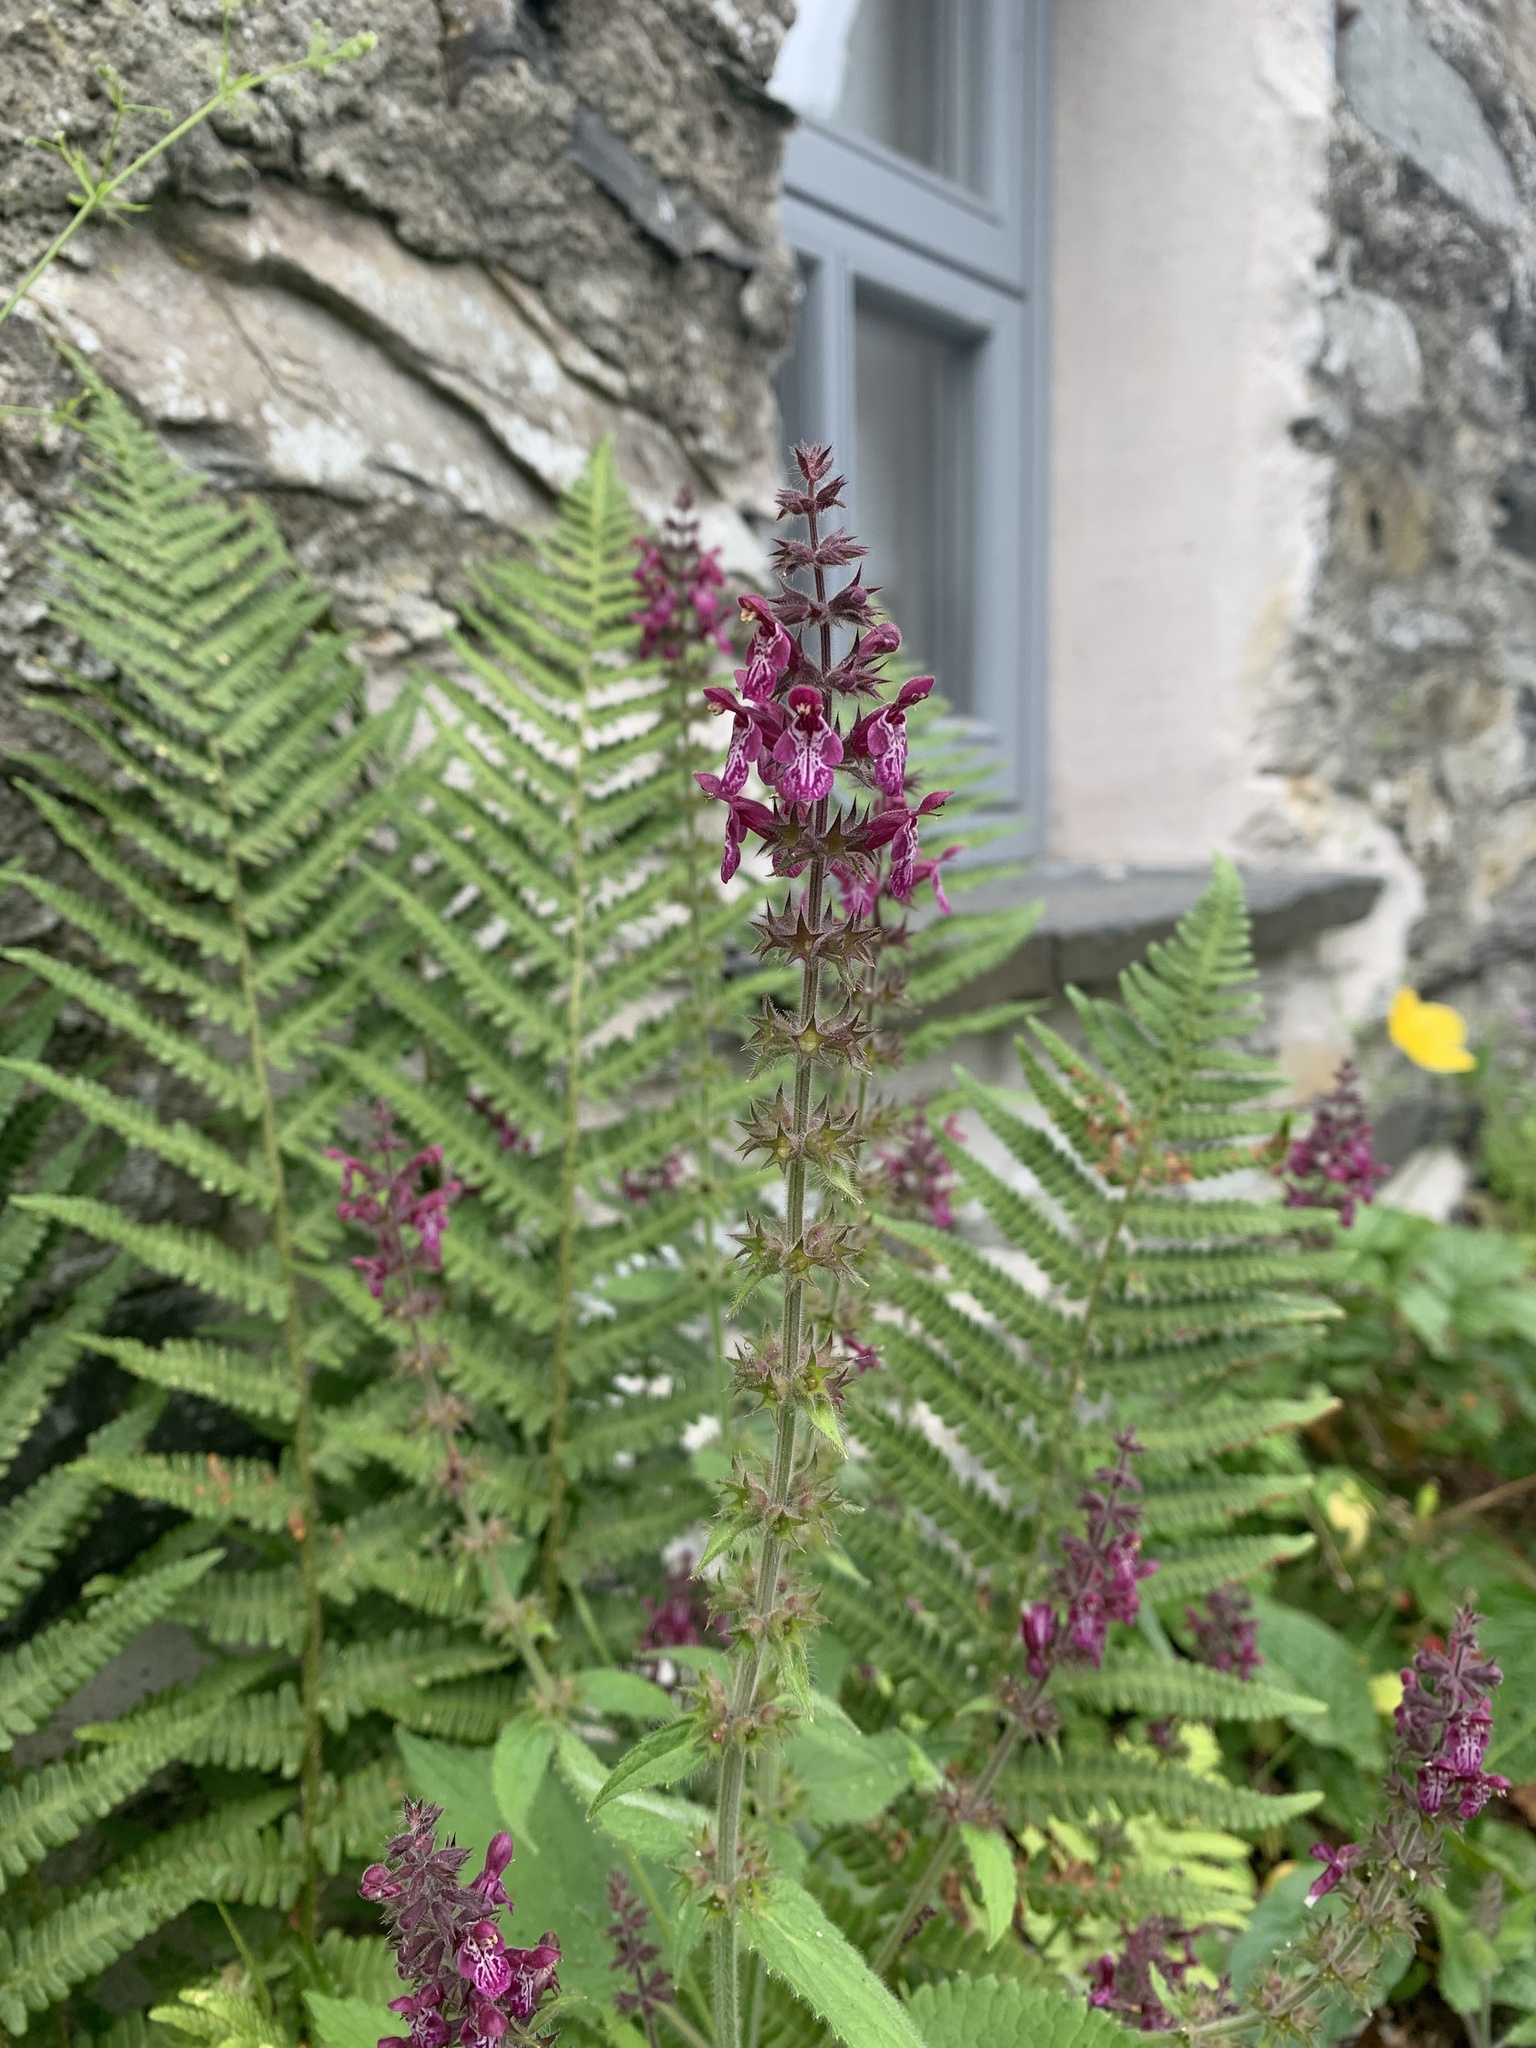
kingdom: Plantae
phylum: Tracheophyta
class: Magnoliopsida
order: Lamiales
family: Lamiaceae
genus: Stachys
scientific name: Stachys sylvatica
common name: Hedge woundwort
